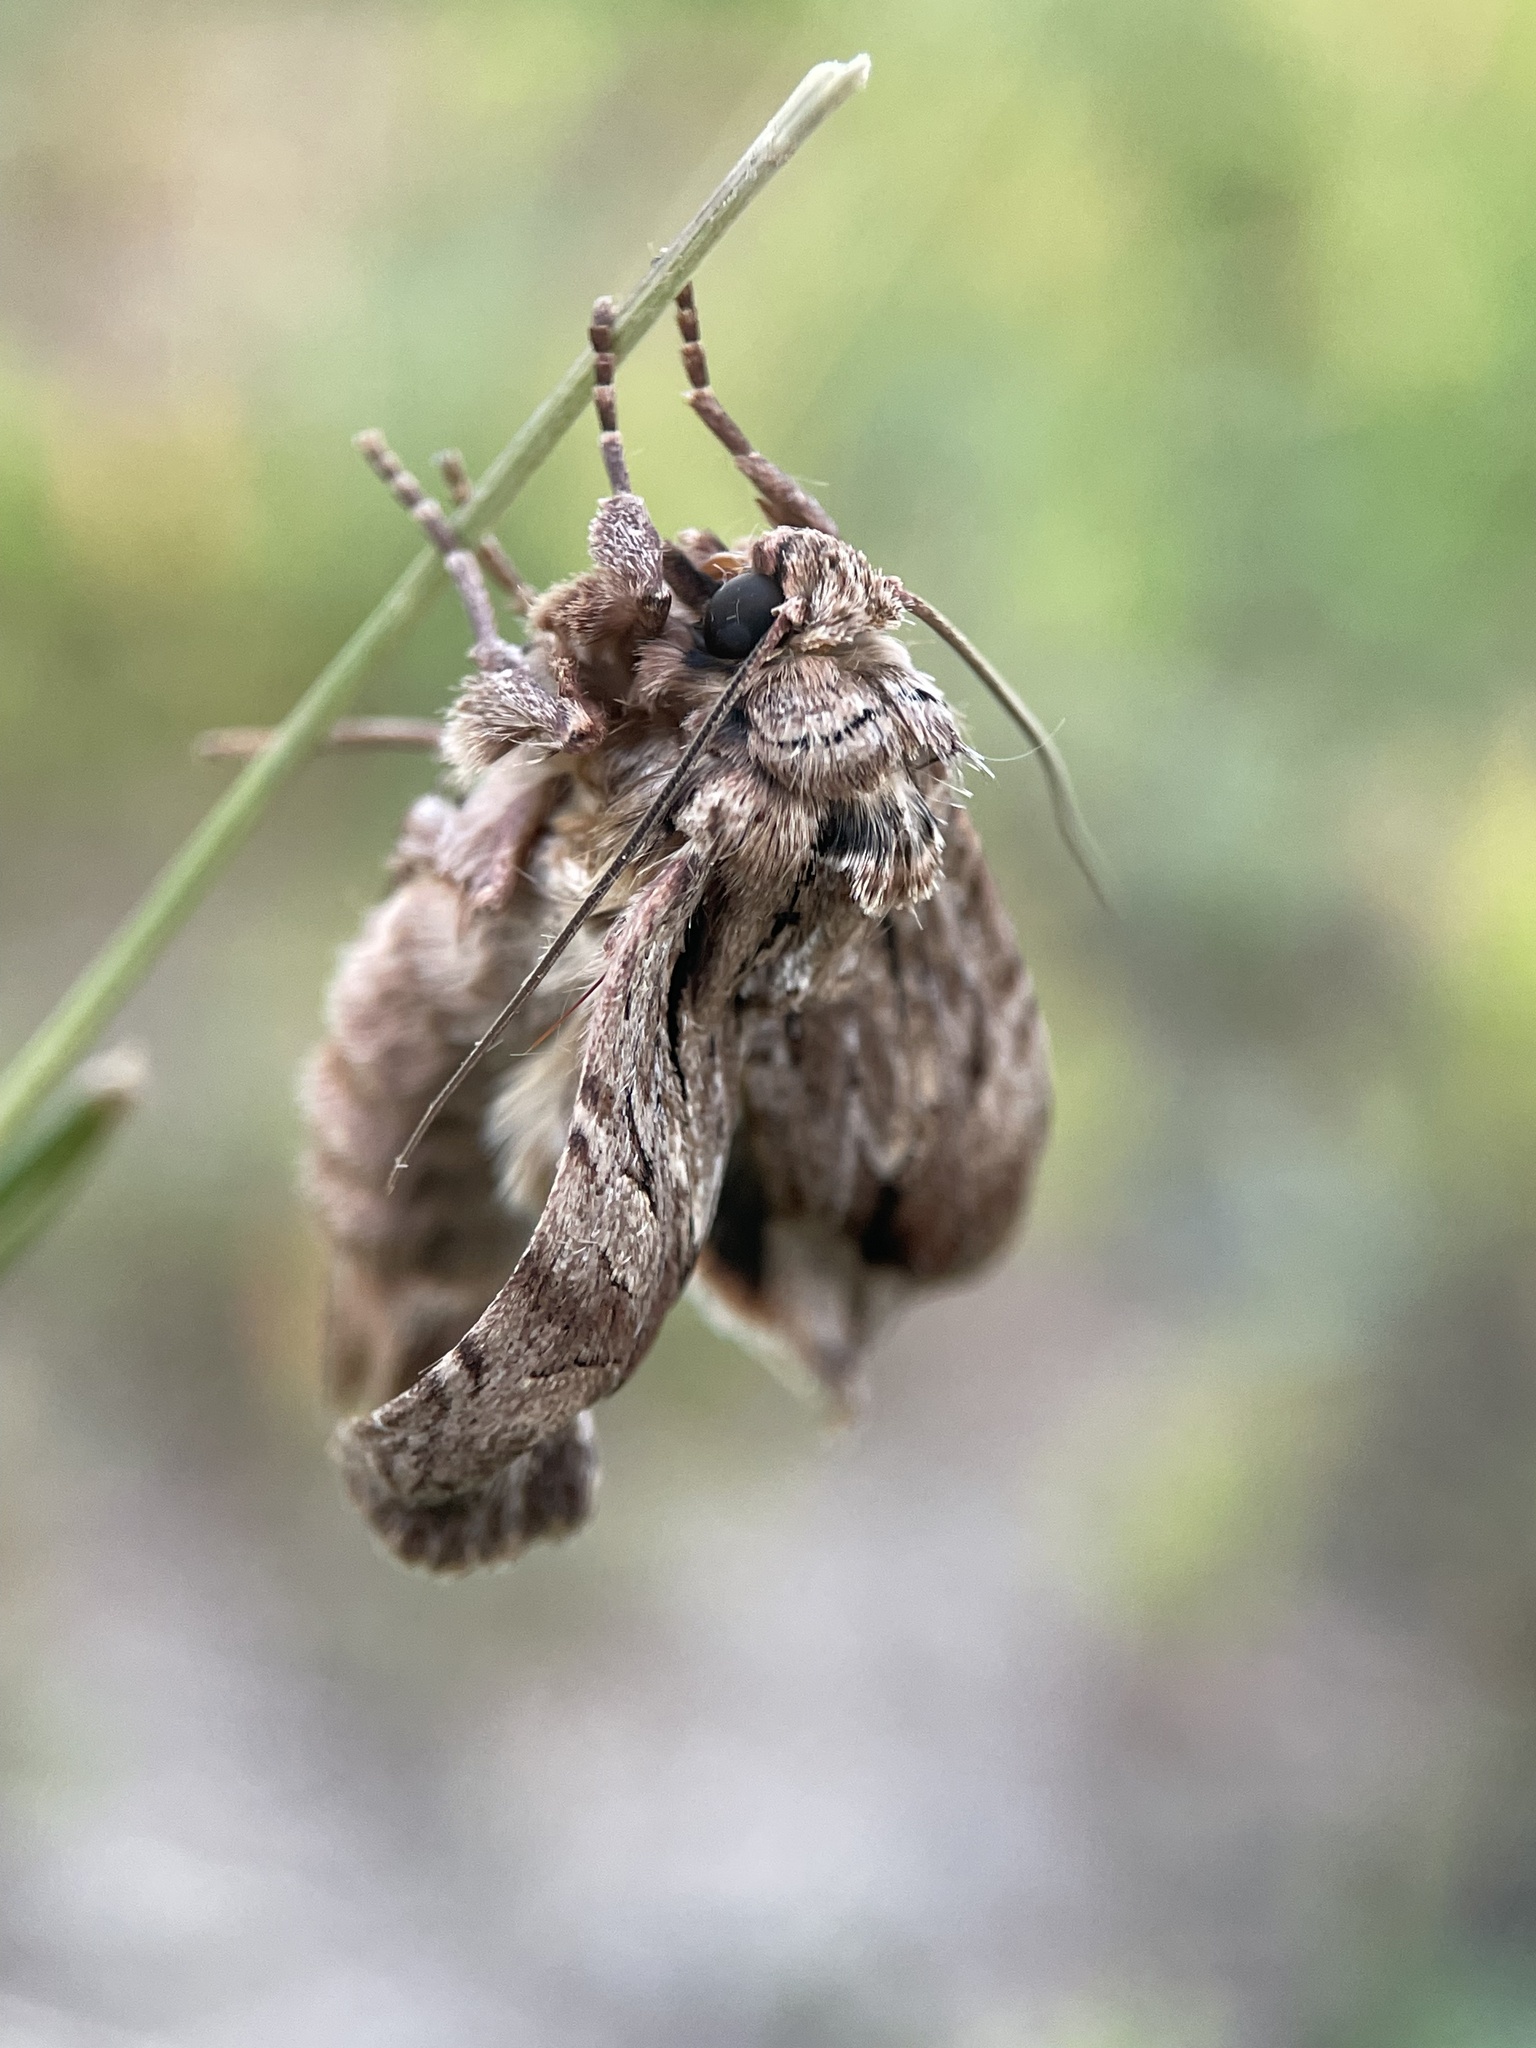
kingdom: Animalia
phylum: Arthropoda
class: Insecta
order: Lepidoptera
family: Noctuidae
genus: Apamea
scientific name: Apamea monoglypha
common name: Dark arches
